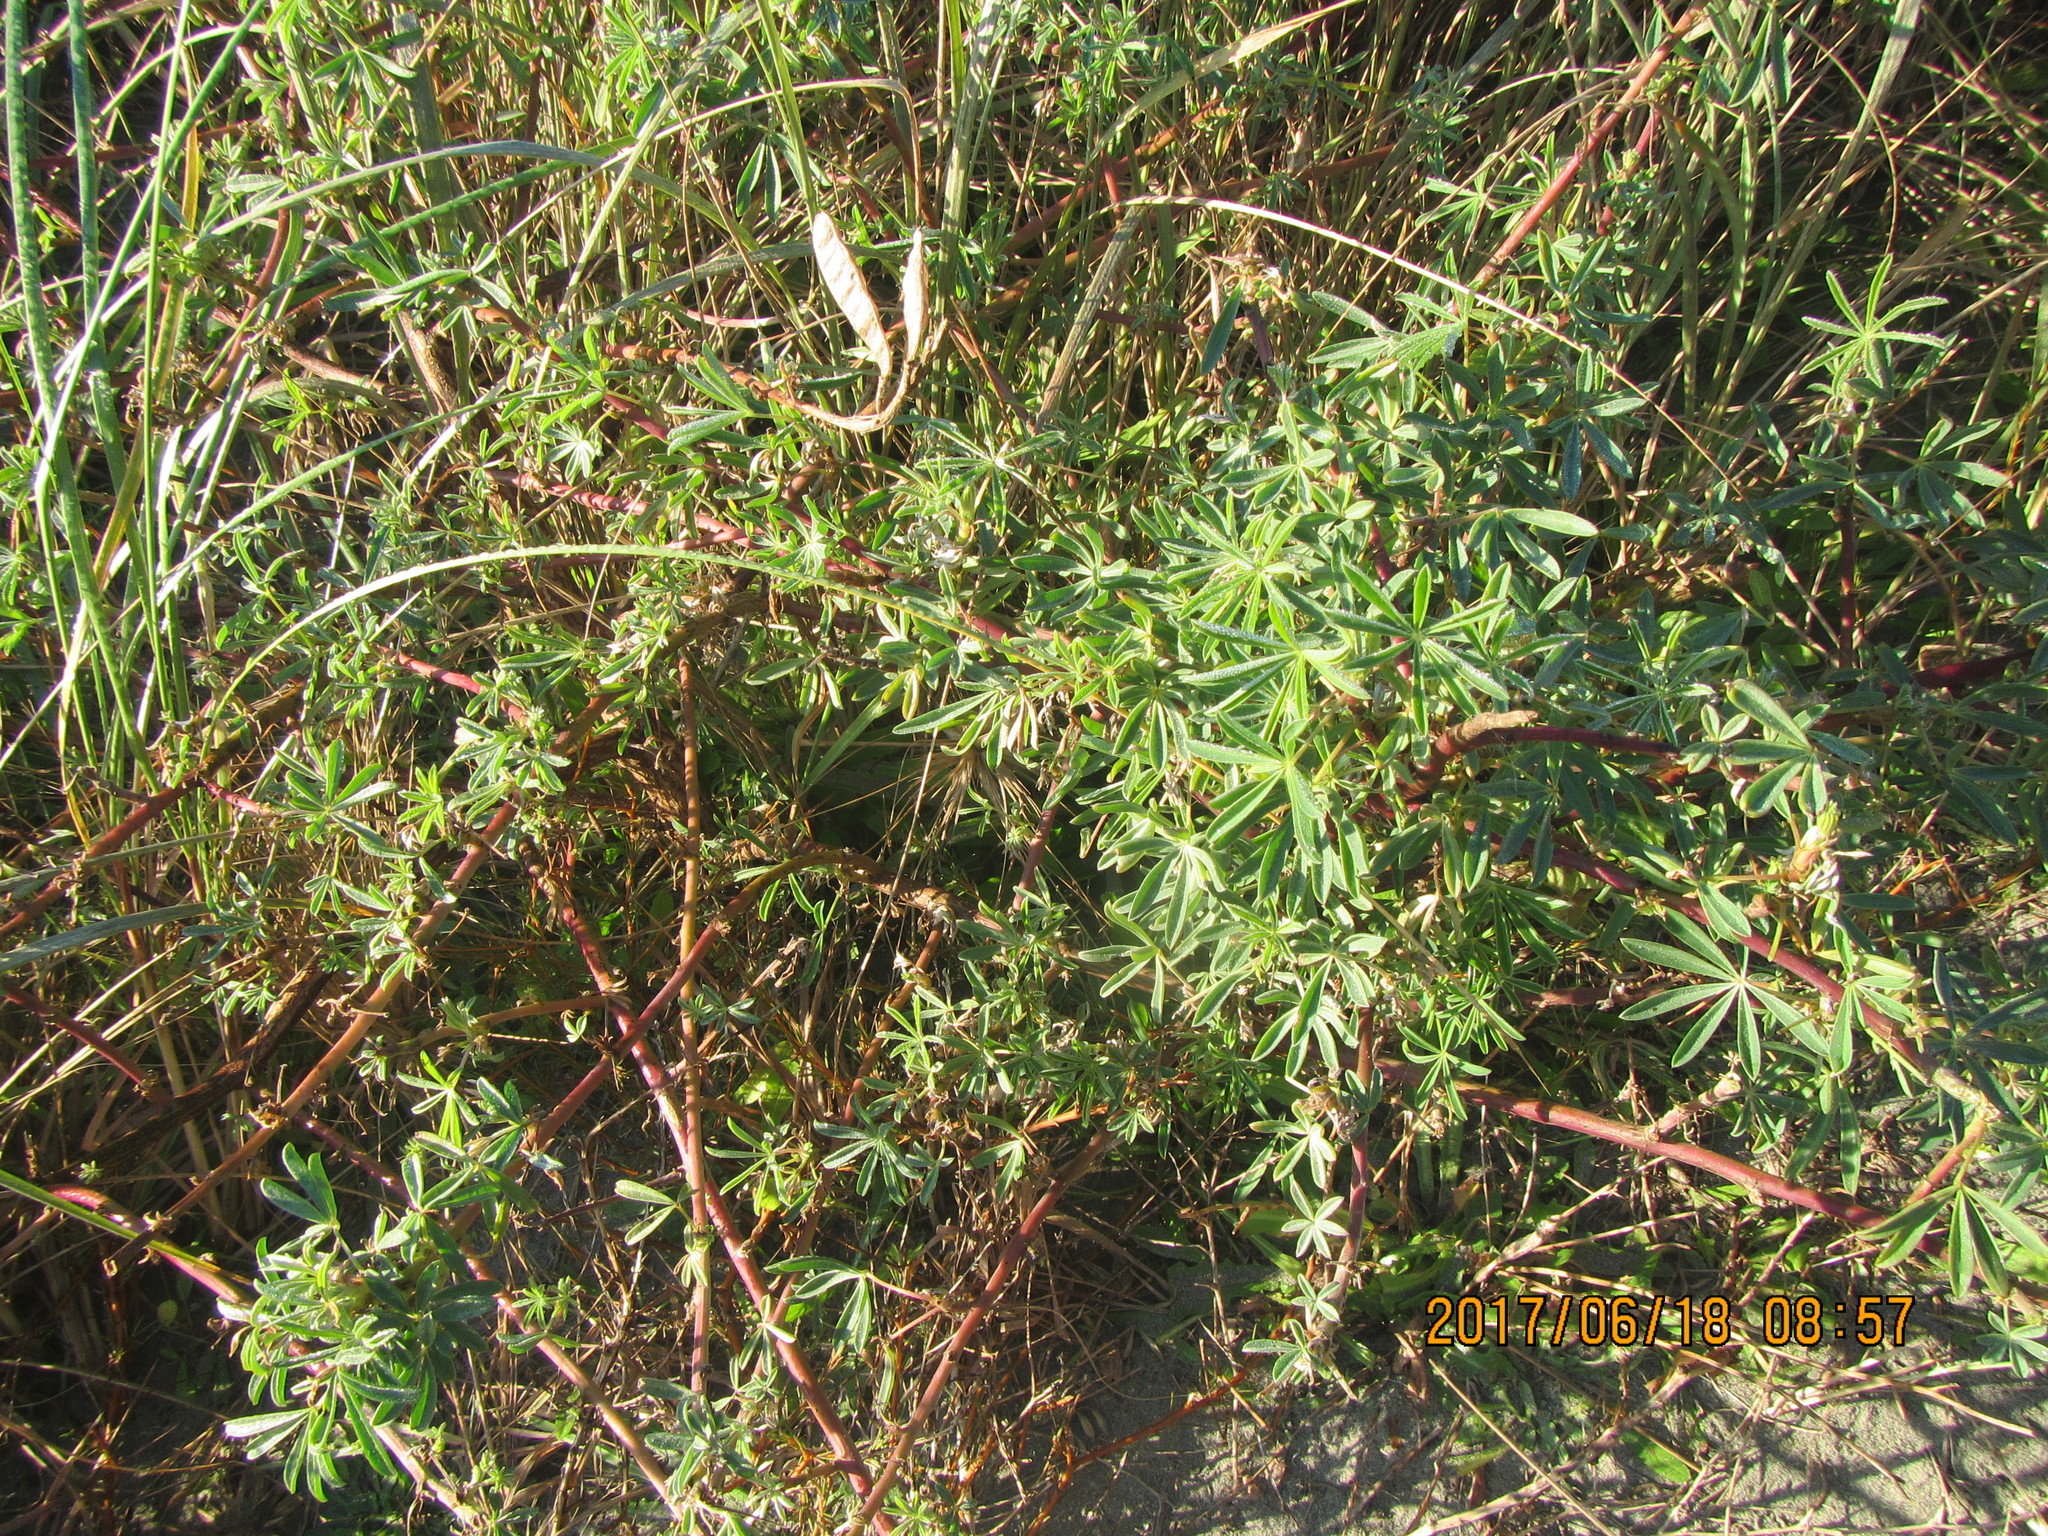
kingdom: Plantae
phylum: Tracheophyta
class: Magnoliopsida
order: Fabales
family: Fabaceae
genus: Lupinus
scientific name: Lupinus arboreus
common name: Yellow bush lupine
